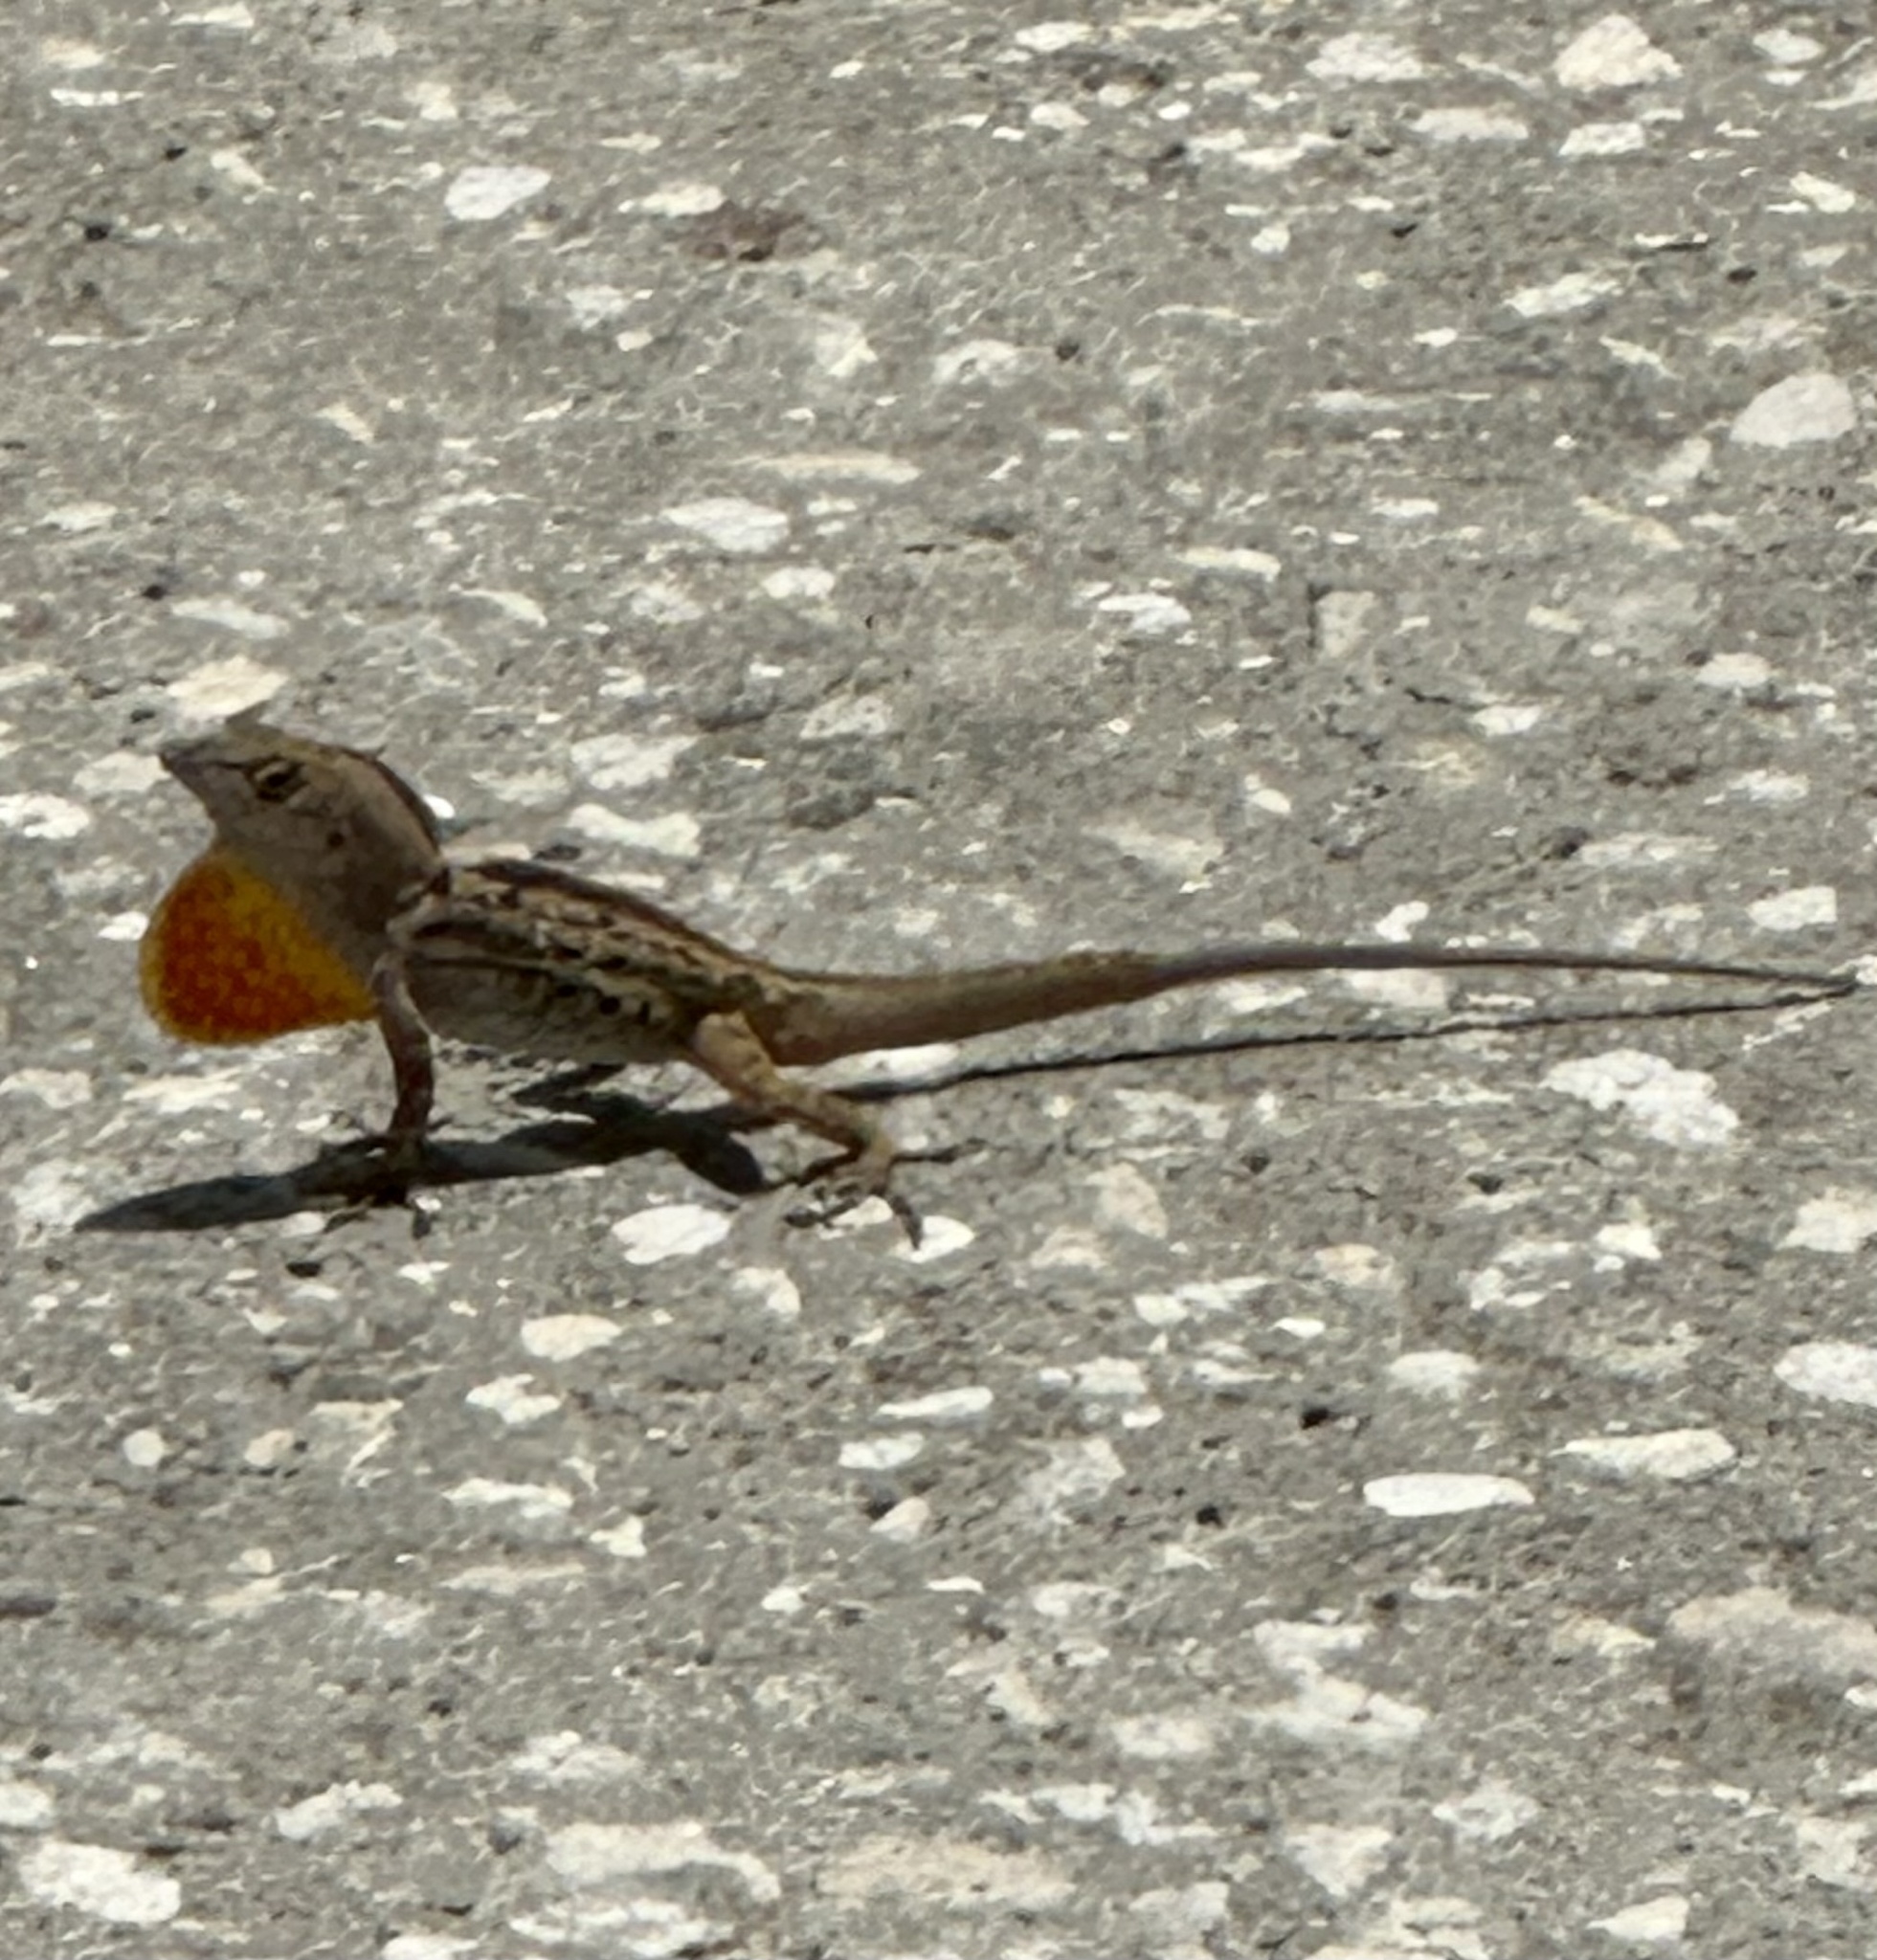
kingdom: Animalia
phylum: Chordata
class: Squamata
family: Dactyloidae
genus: Anolis
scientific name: Anolis sagrei
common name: Brown anole
